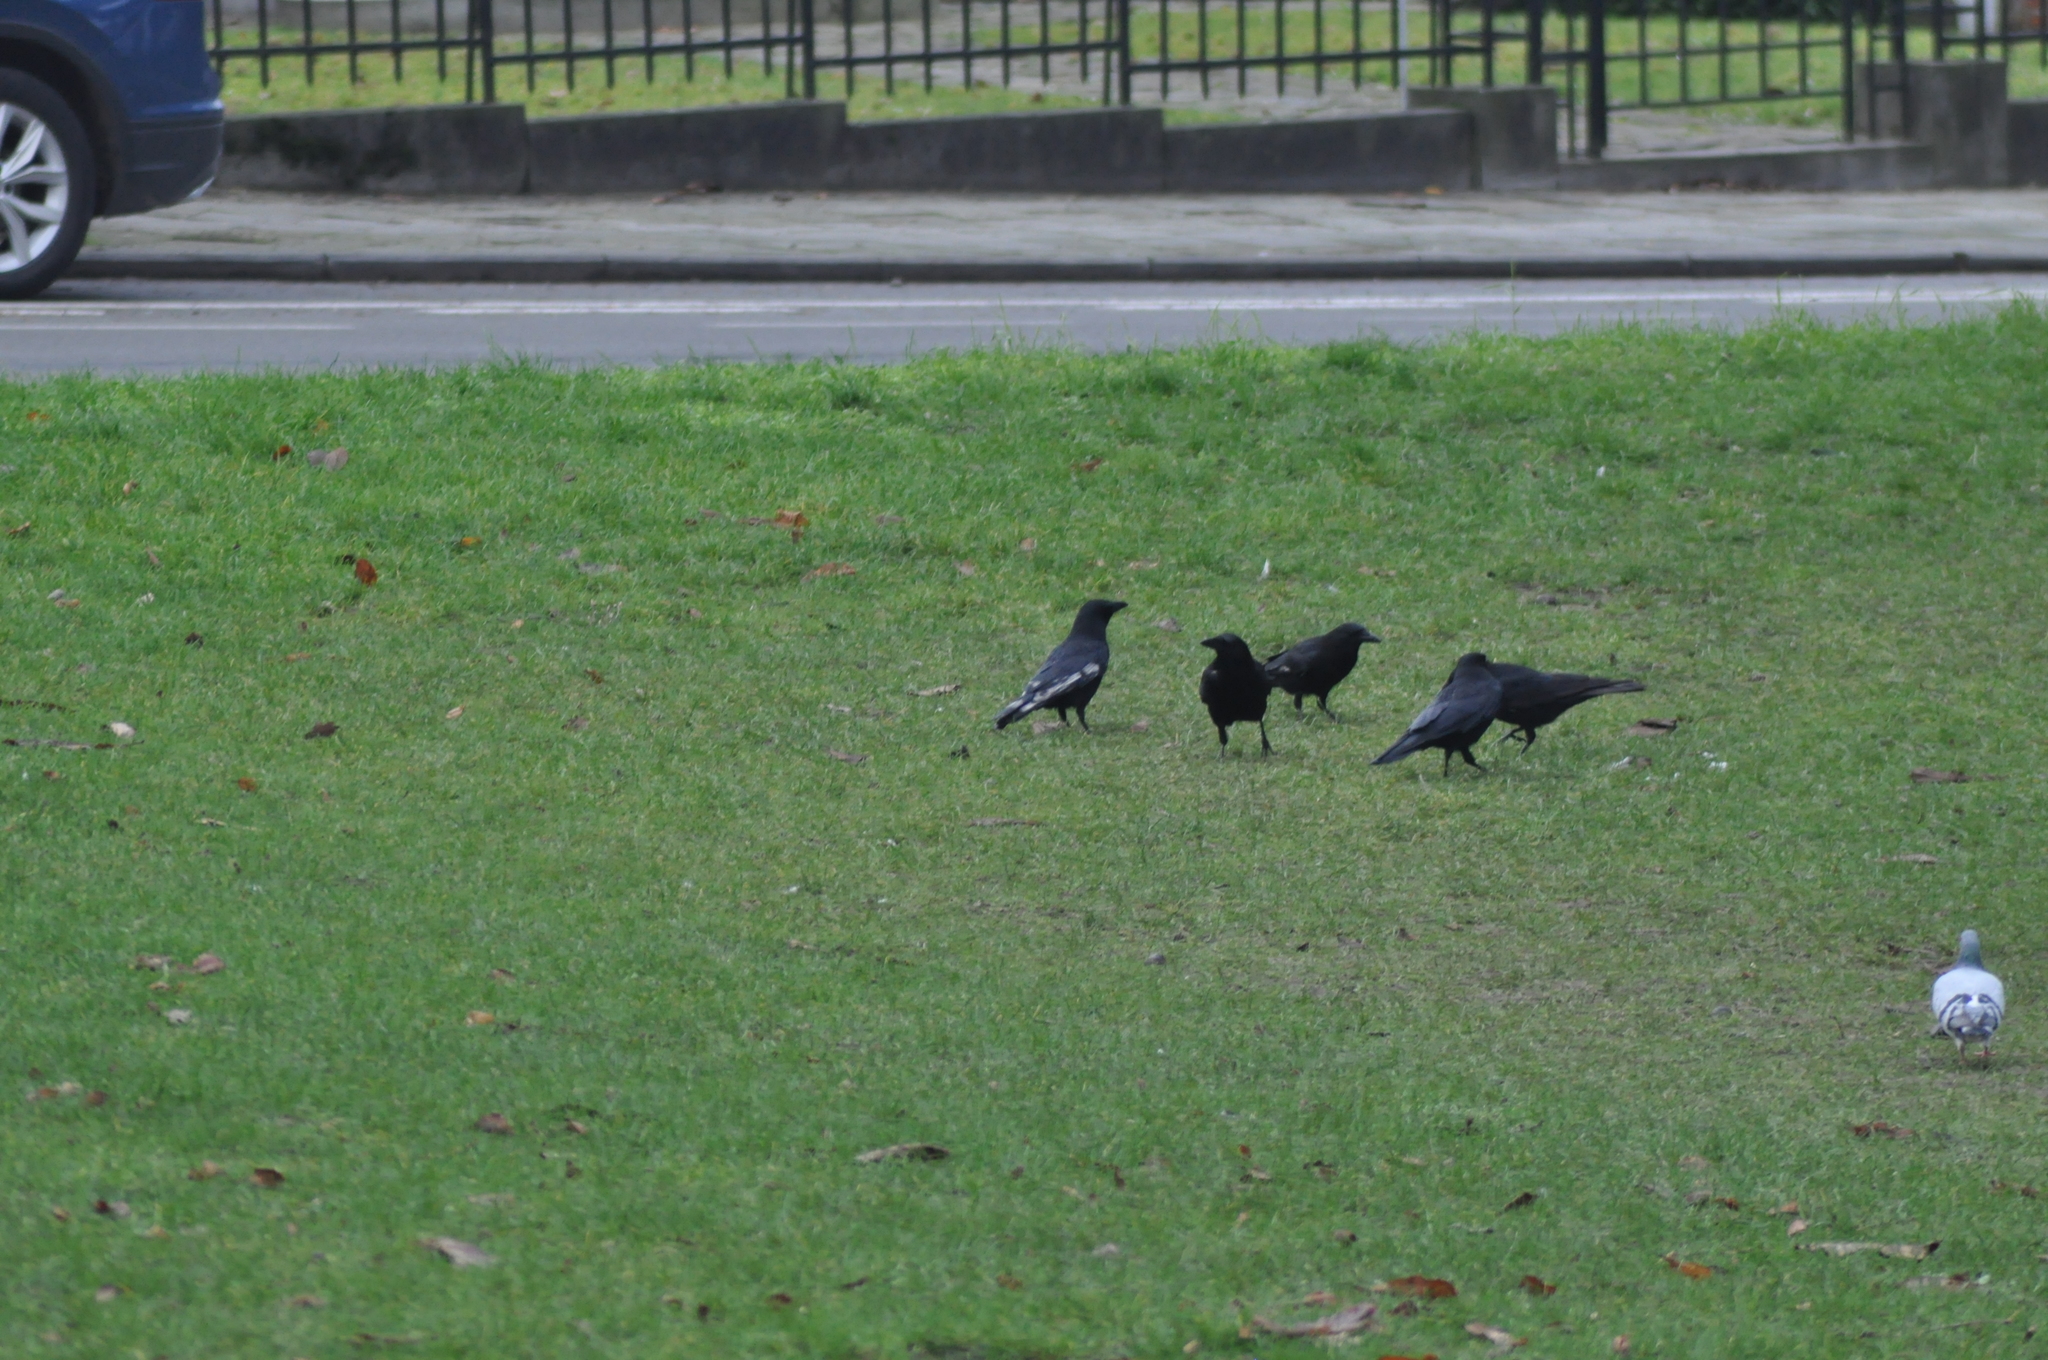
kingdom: Animalia
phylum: Chordata
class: Aves
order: Passeriformes
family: Corvidae
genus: Corvus
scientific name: Corvus corone
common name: Carrion crow
